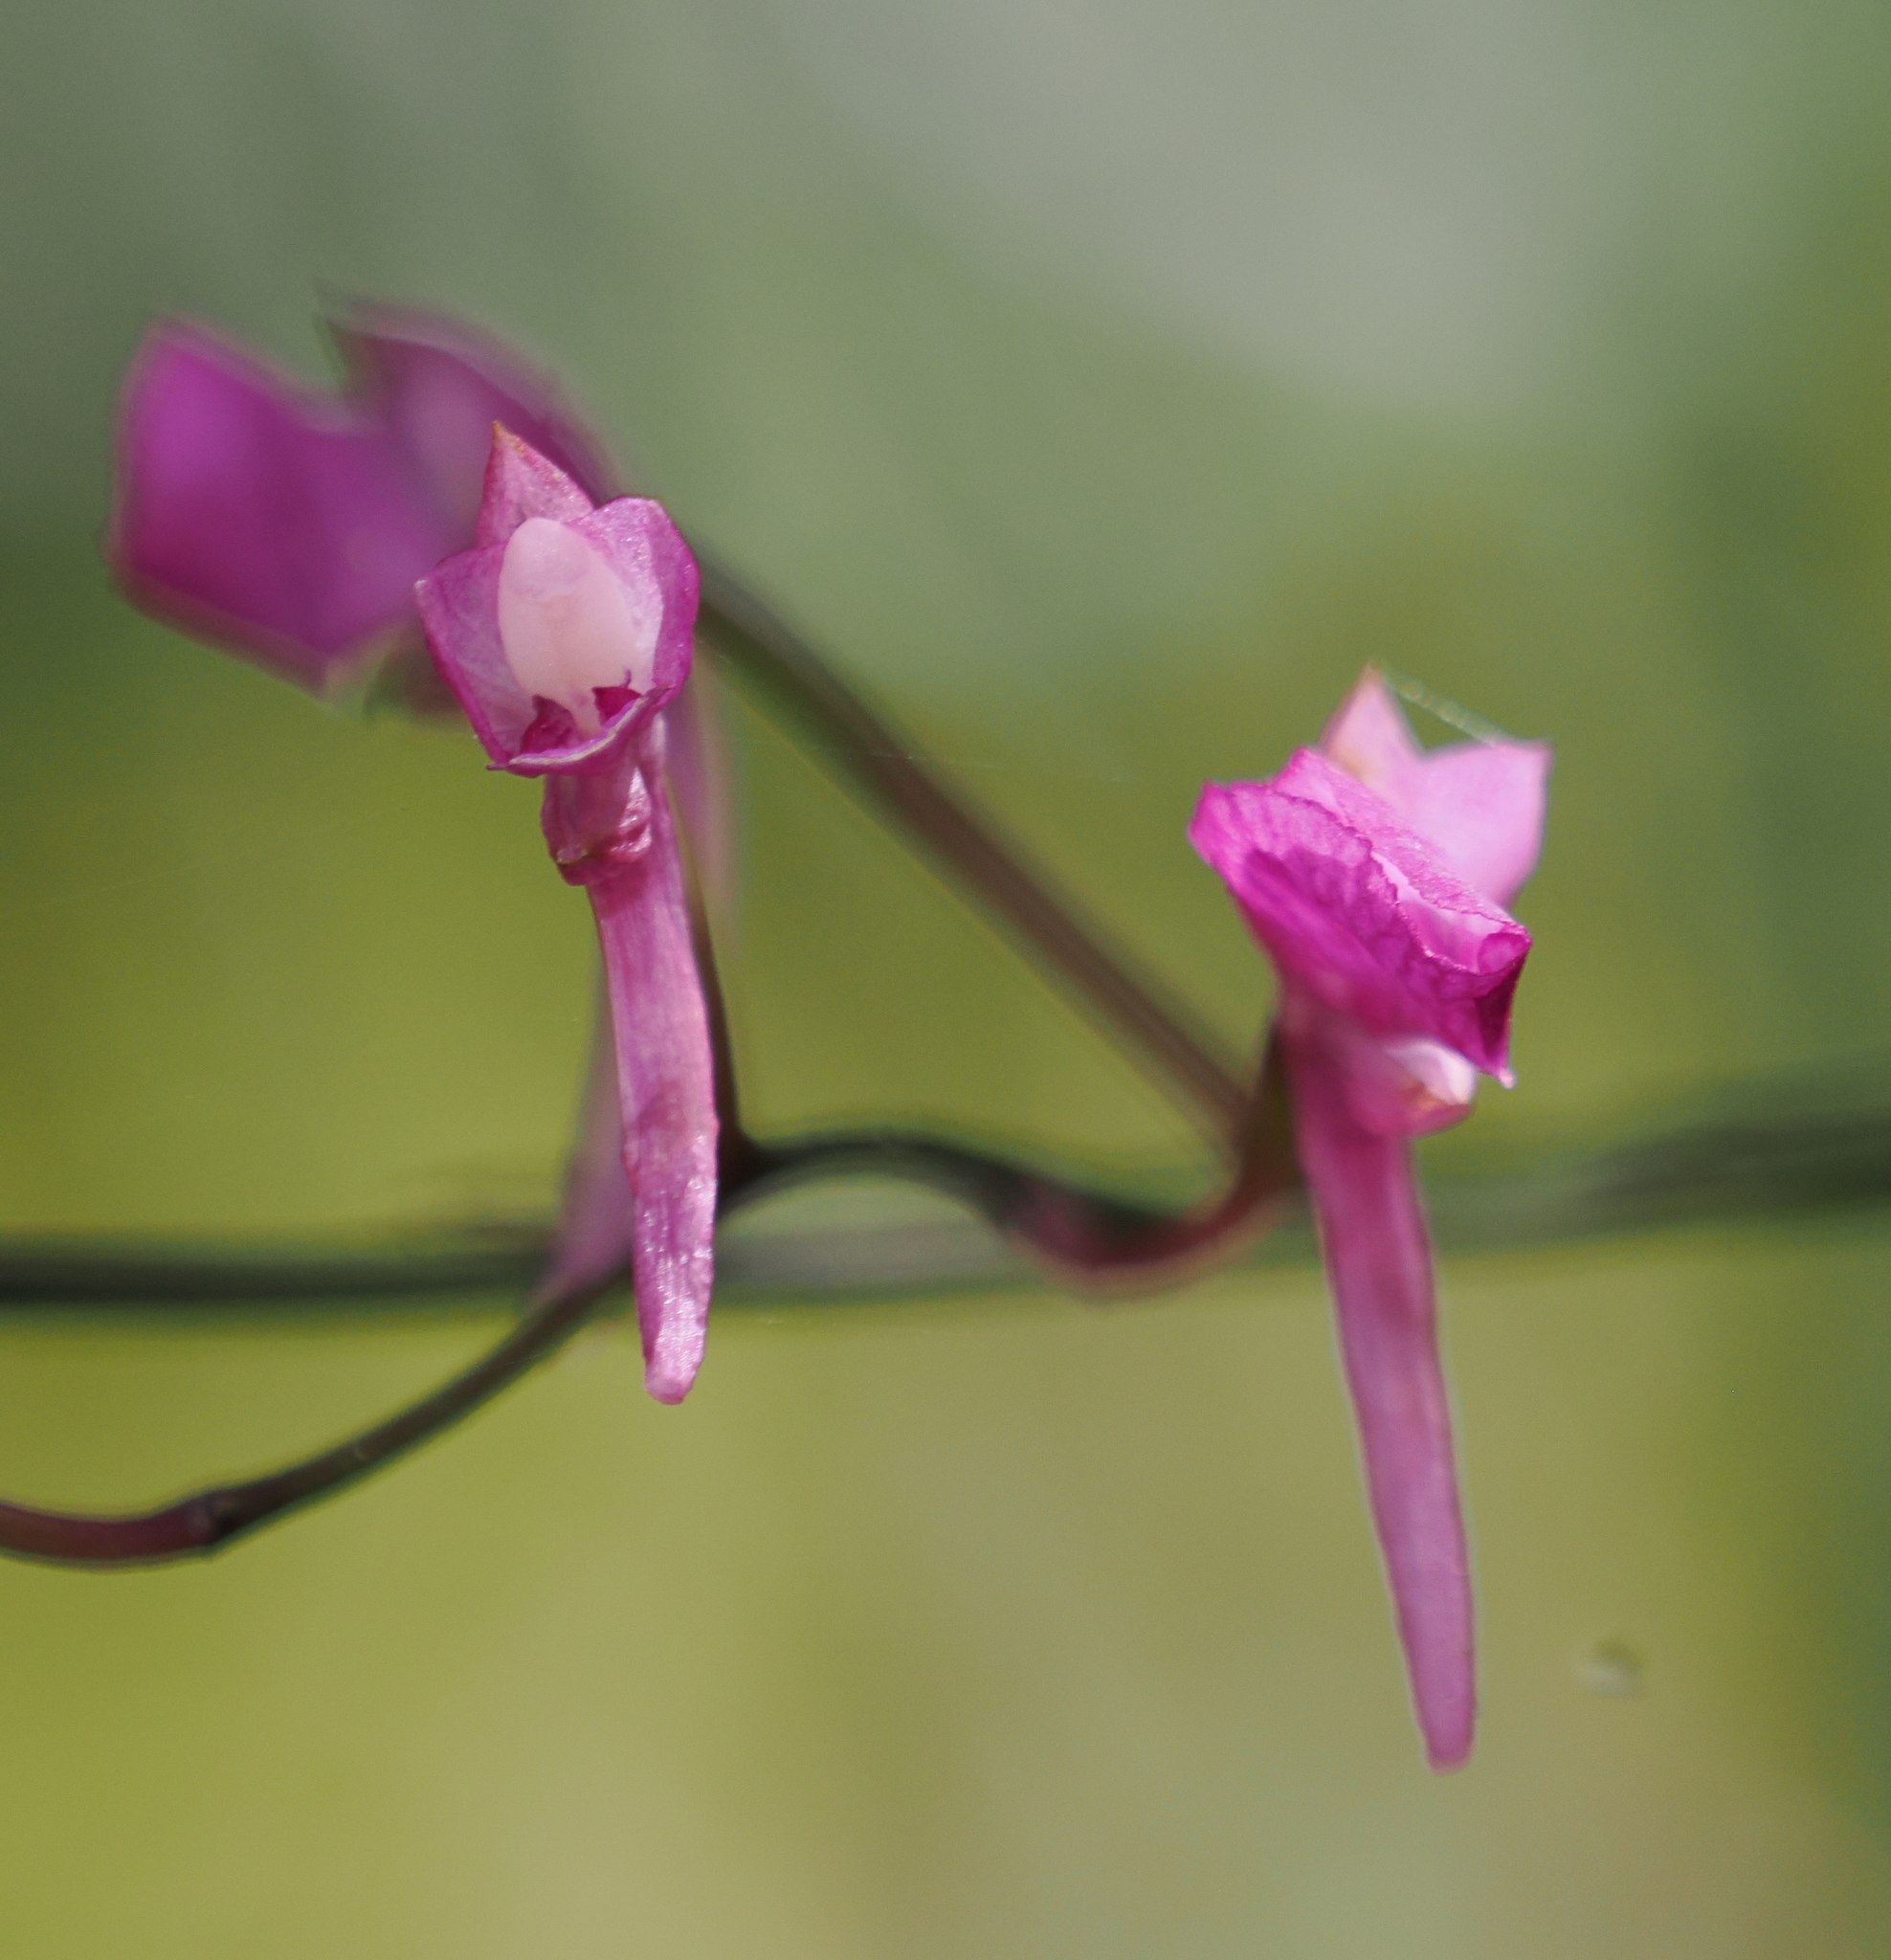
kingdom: Plantae
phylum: Tracheophyta
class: Liliopsida
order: Asparagales
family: Orchidaceae
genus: Comparettia
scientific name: Comparettia falcata
